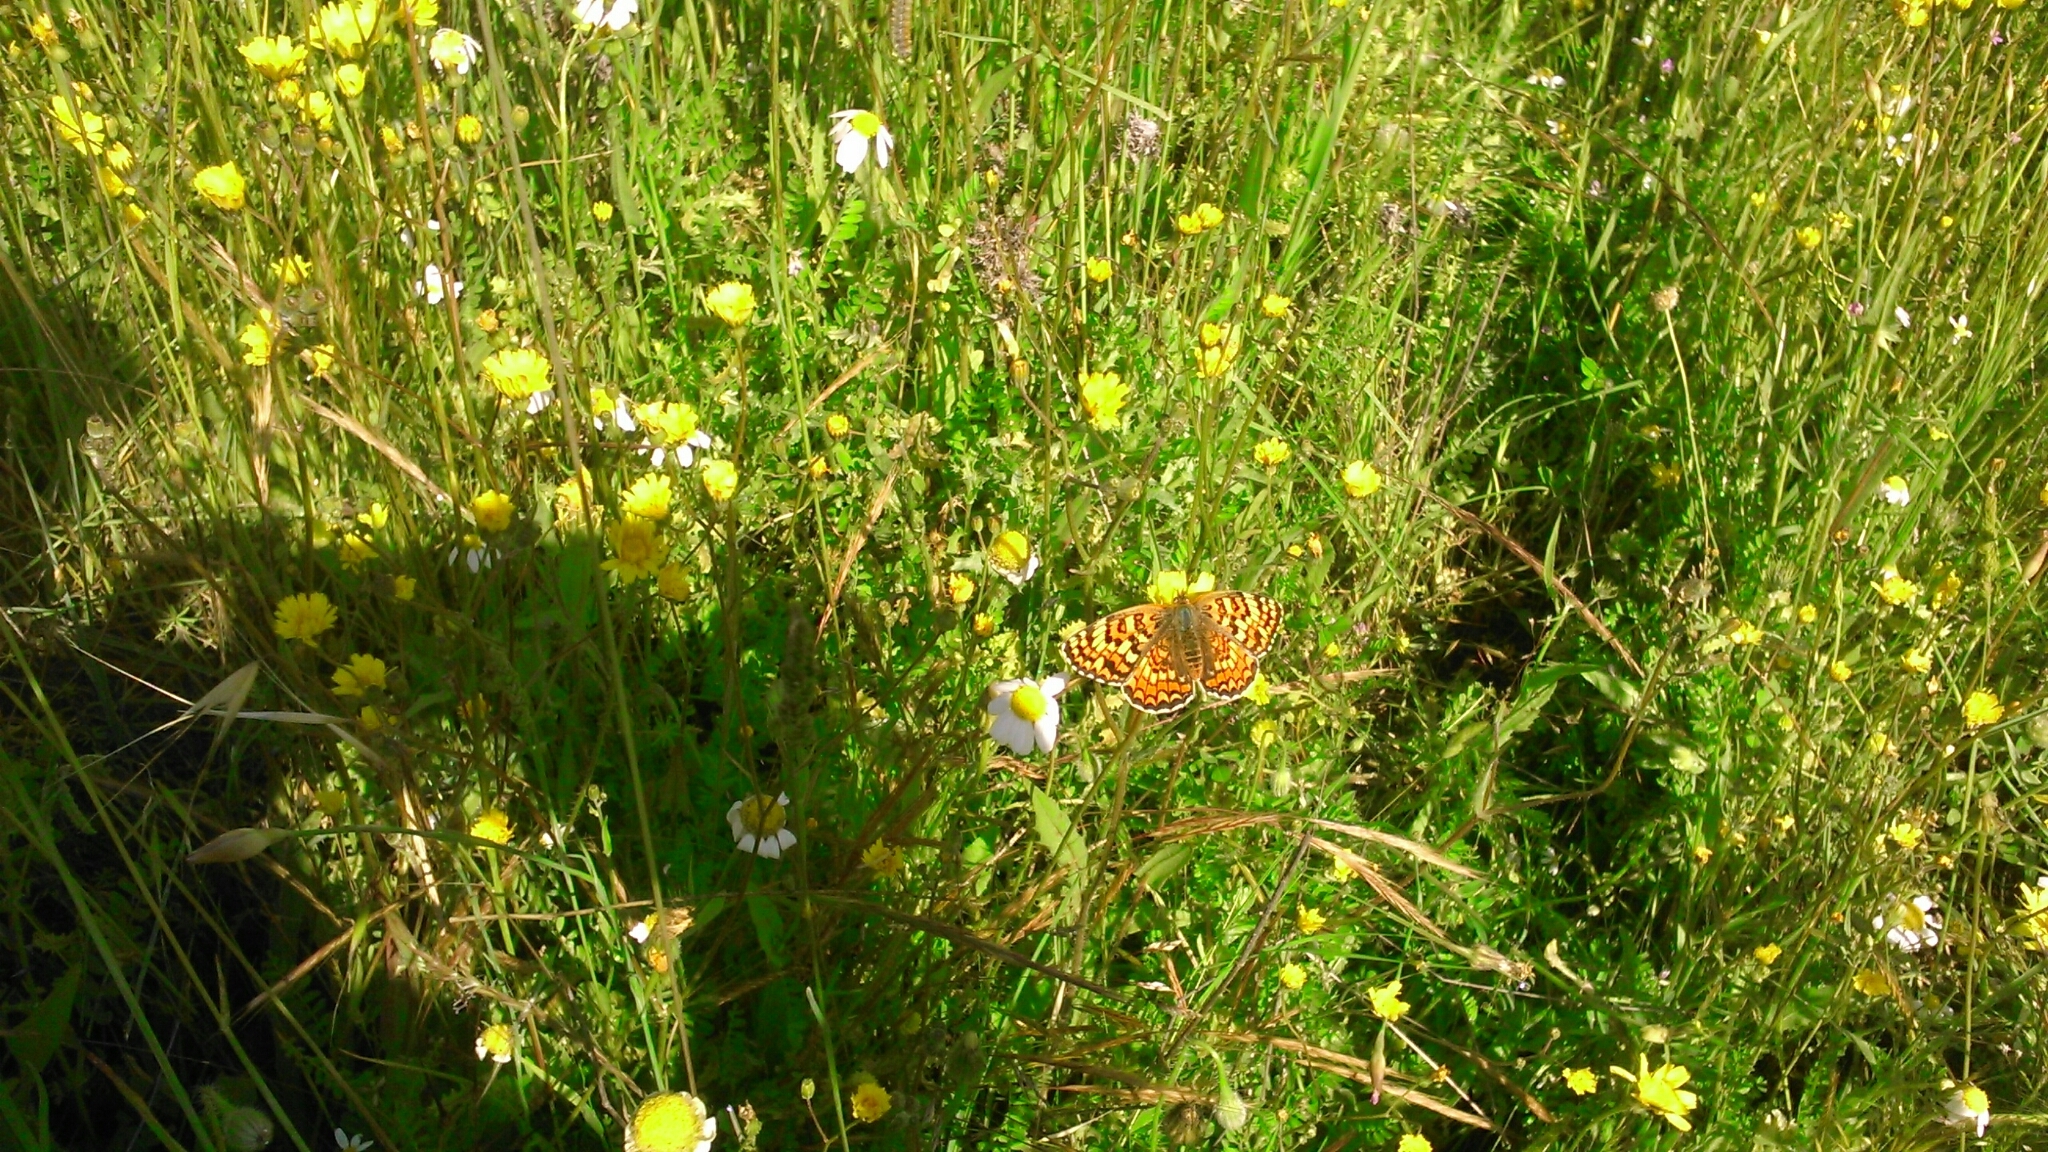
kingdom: Animalia
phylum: Arthropoda
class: Insecta
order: Lepidoptera
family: Nymphalidae
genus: Melitaea
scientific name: Melitaea phoebe
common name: Knapweed fritillary
